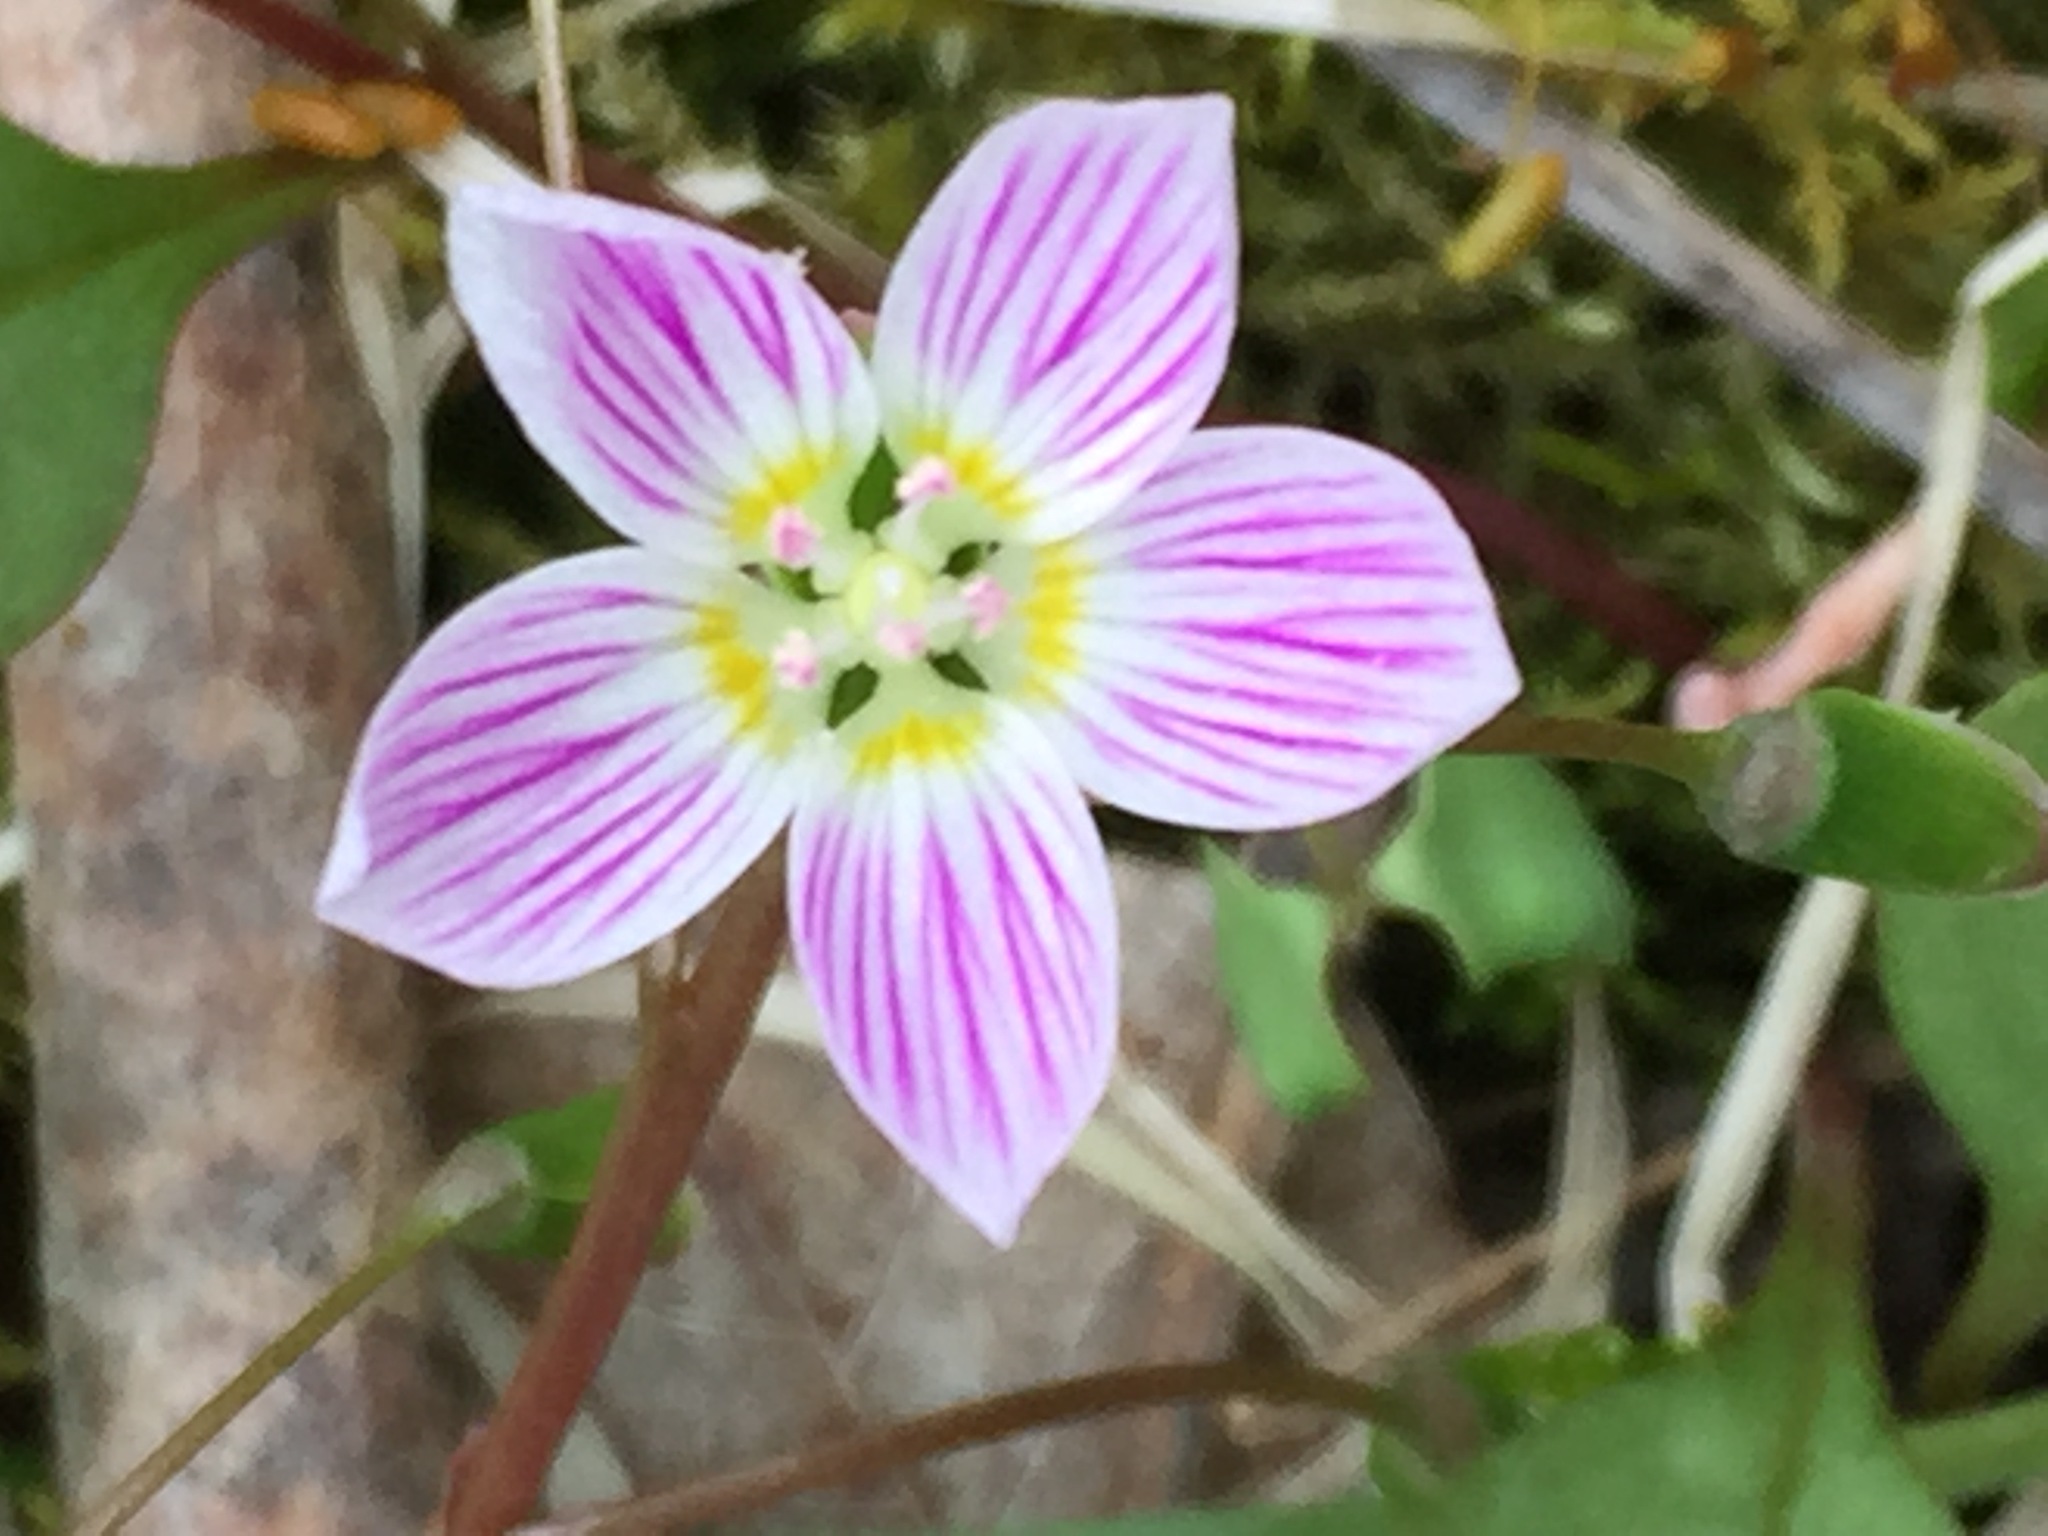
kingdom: Plantae
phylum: Tracheophyta
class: Magnoliopsida
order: Caryophyllales
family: Montiaceae
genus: Claytonia
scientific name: Claytonia caroliniana
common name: Carolina spring beauty
